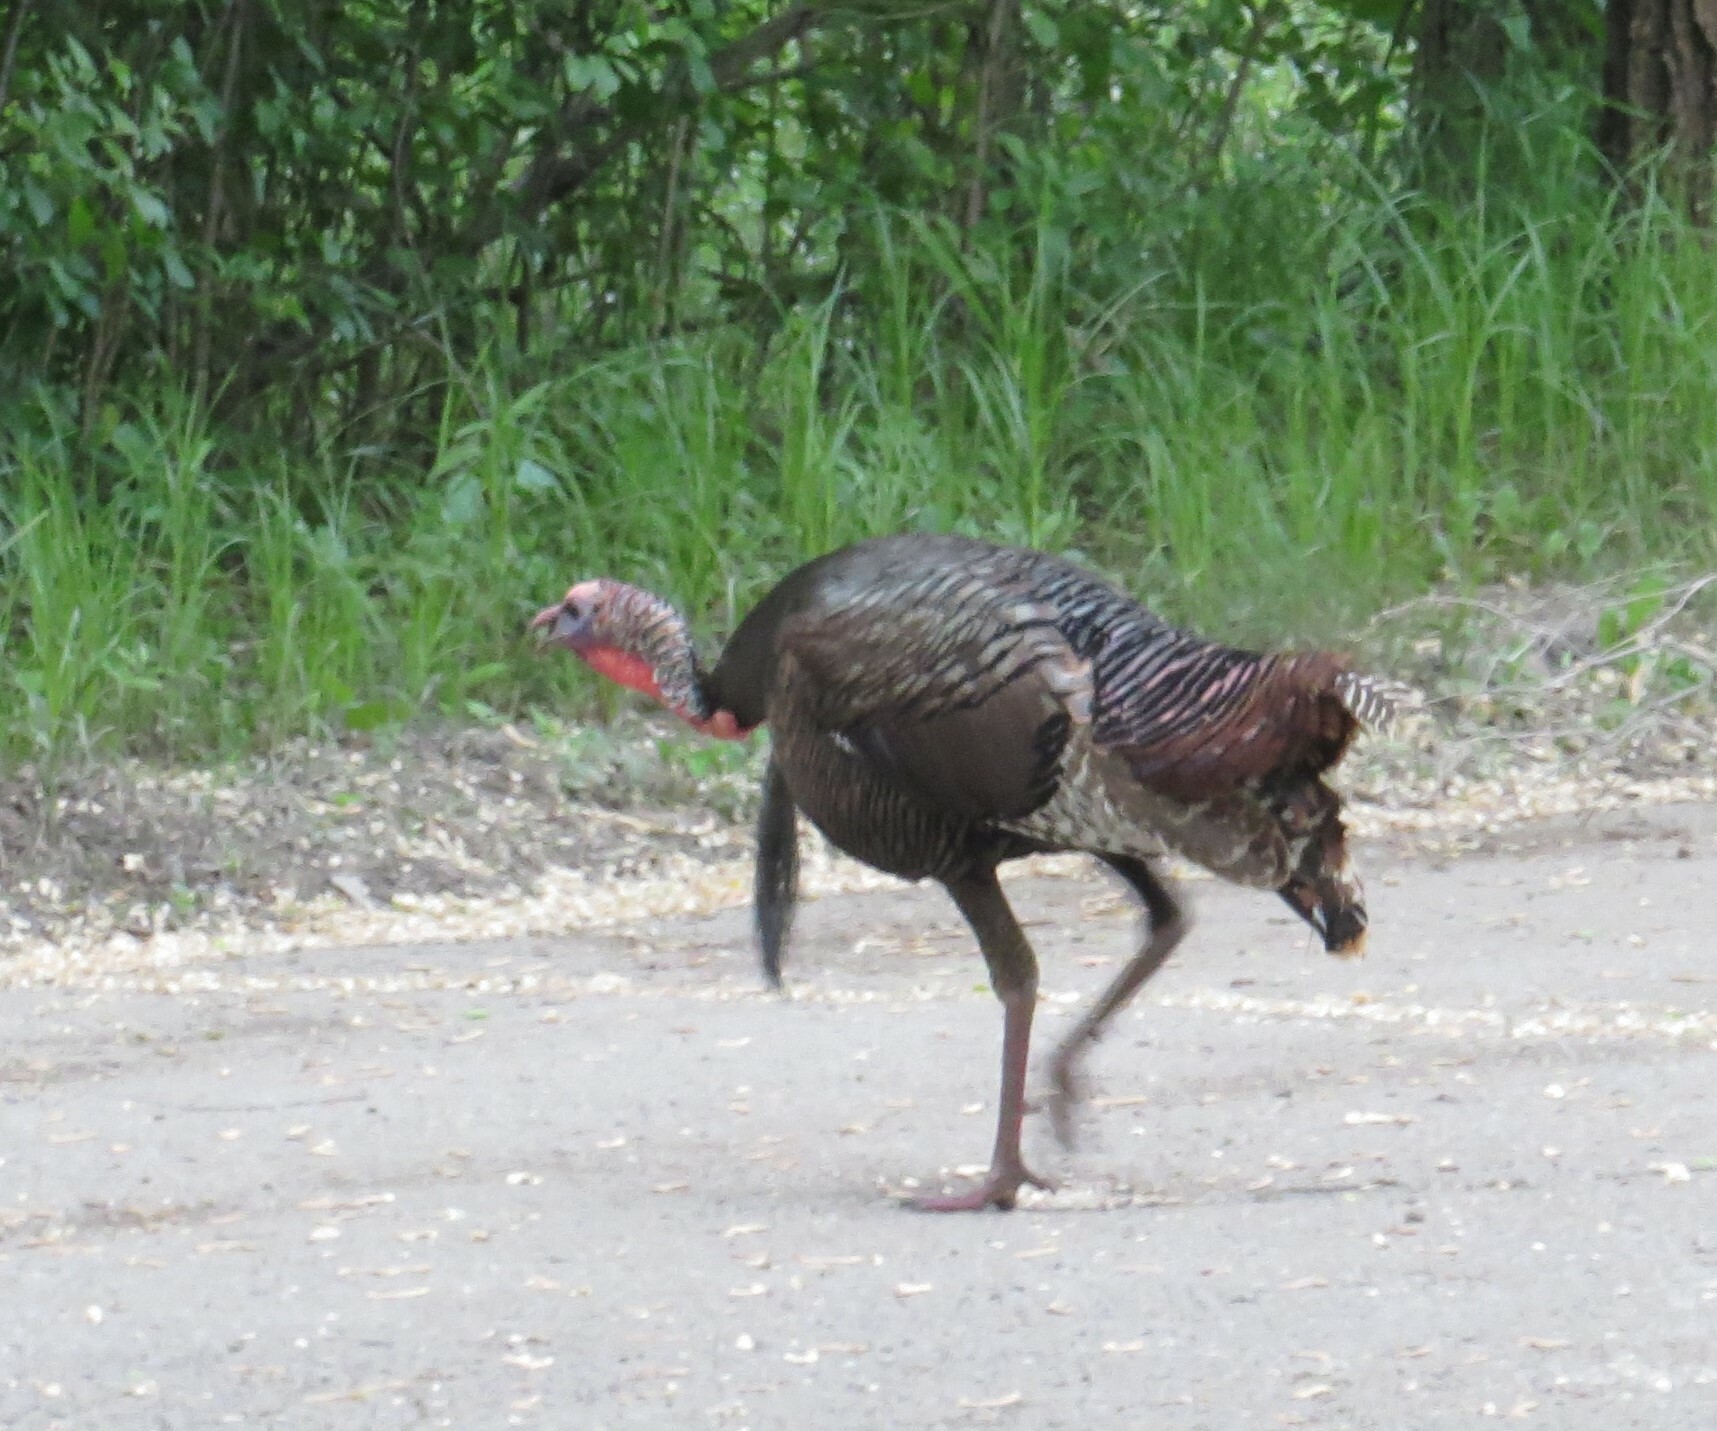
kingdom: Animalia
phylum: Chordata
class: Aves
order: Galliformes
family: Phasianidae
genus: Meleagris
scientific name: Meleagris gallopavo
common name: Wild turkey
